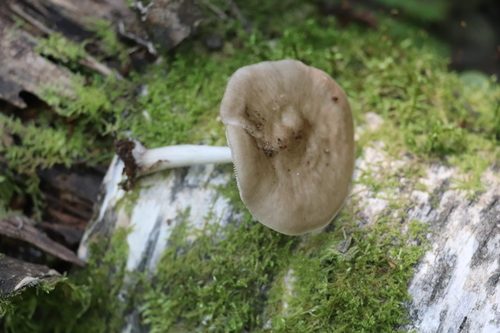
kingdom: Fungi
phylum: Basidiomycota
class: Agaricomycetes
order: Agaricales
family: Pluteaceae
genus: Pluteus
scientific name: Pluteus
